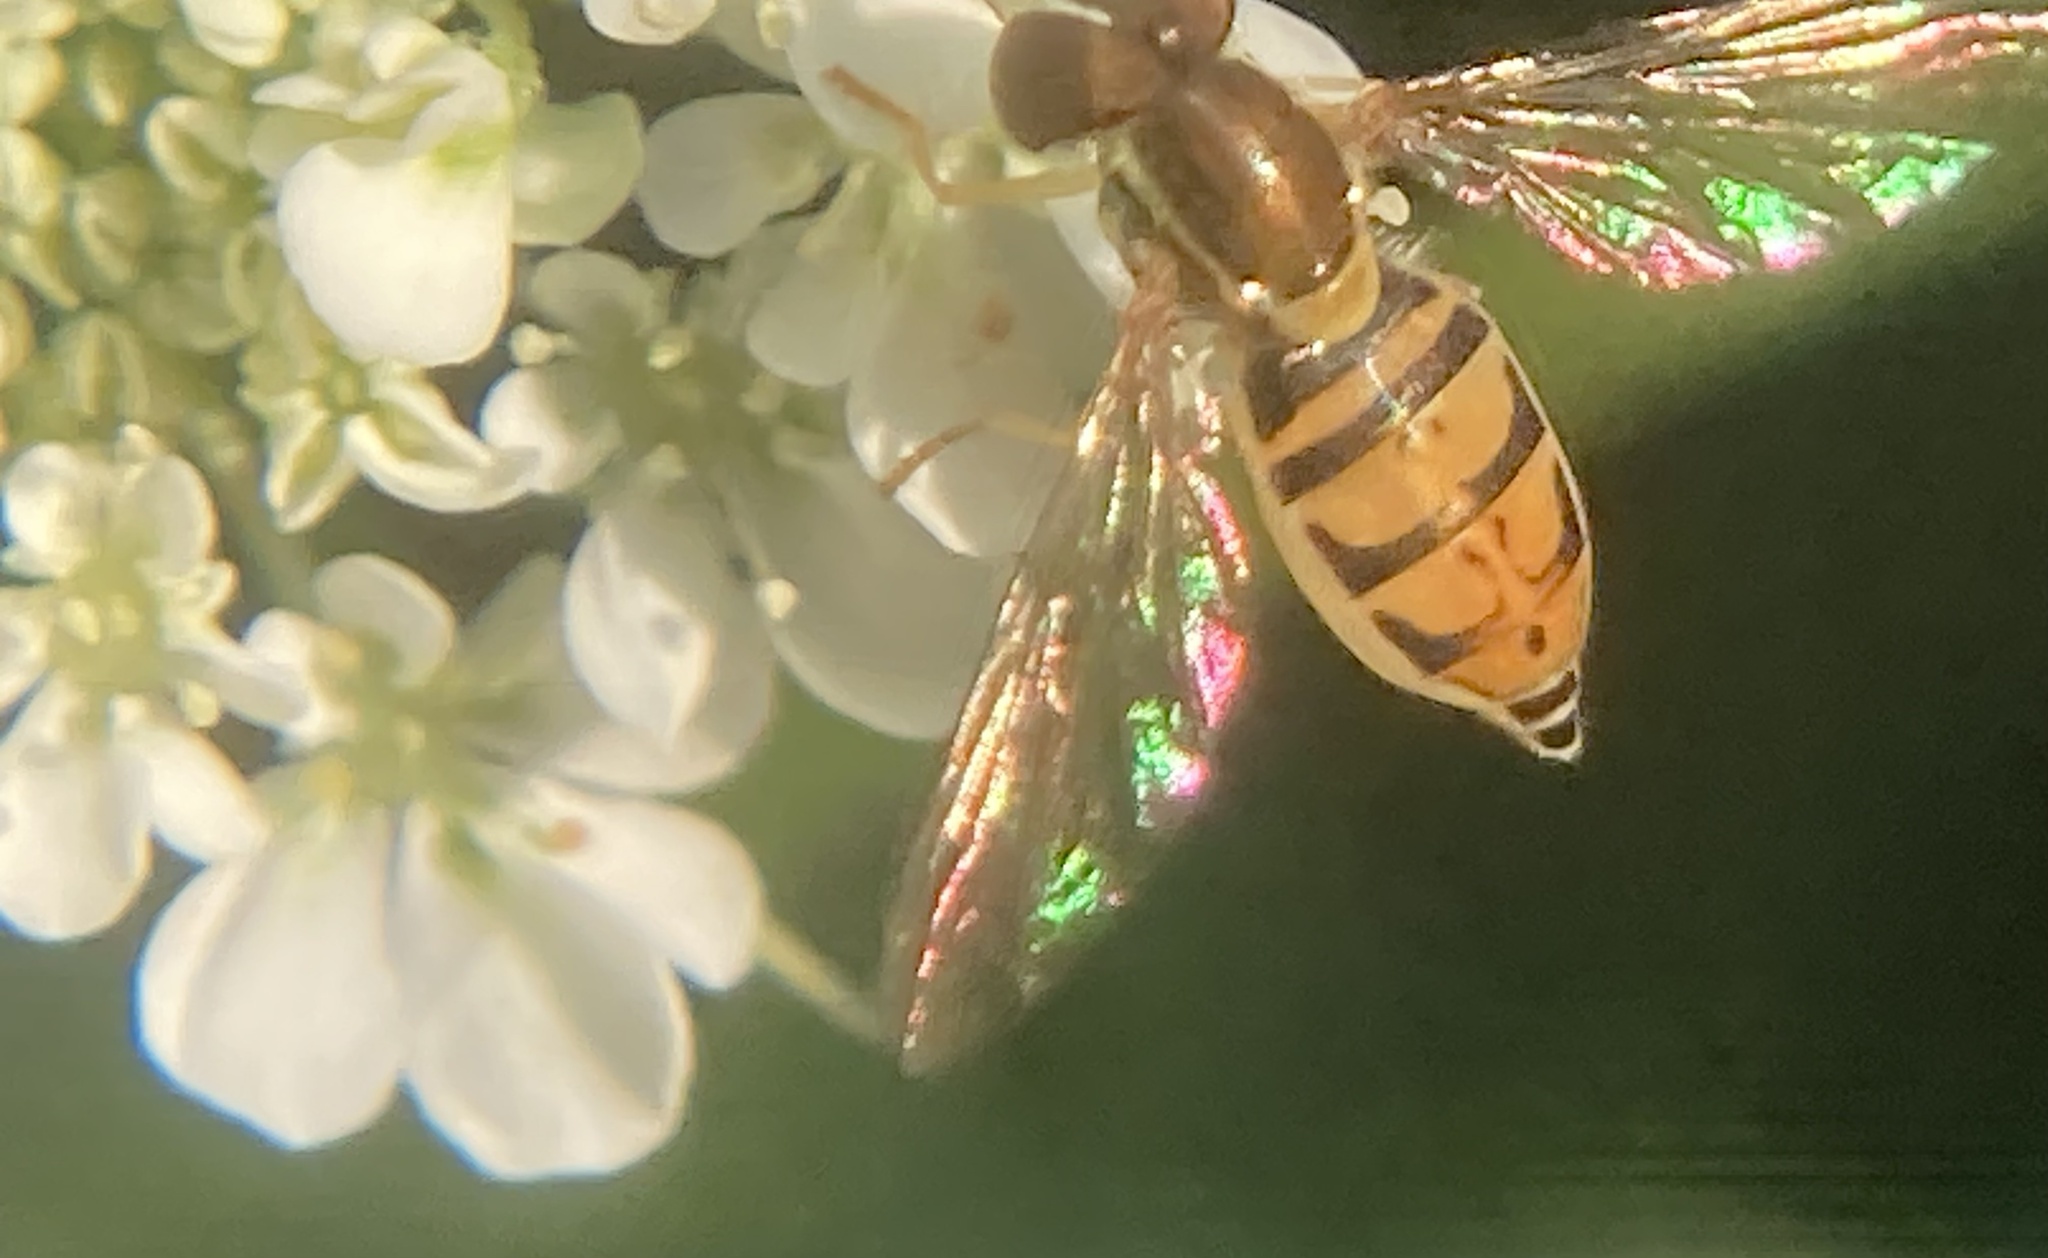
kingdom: Animalia
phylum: Arthropoda
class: Insecta
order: Diptera
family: Syrphidae
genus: Toxomerus
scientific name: Toxomerus marginatus
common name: Syrphid fly
